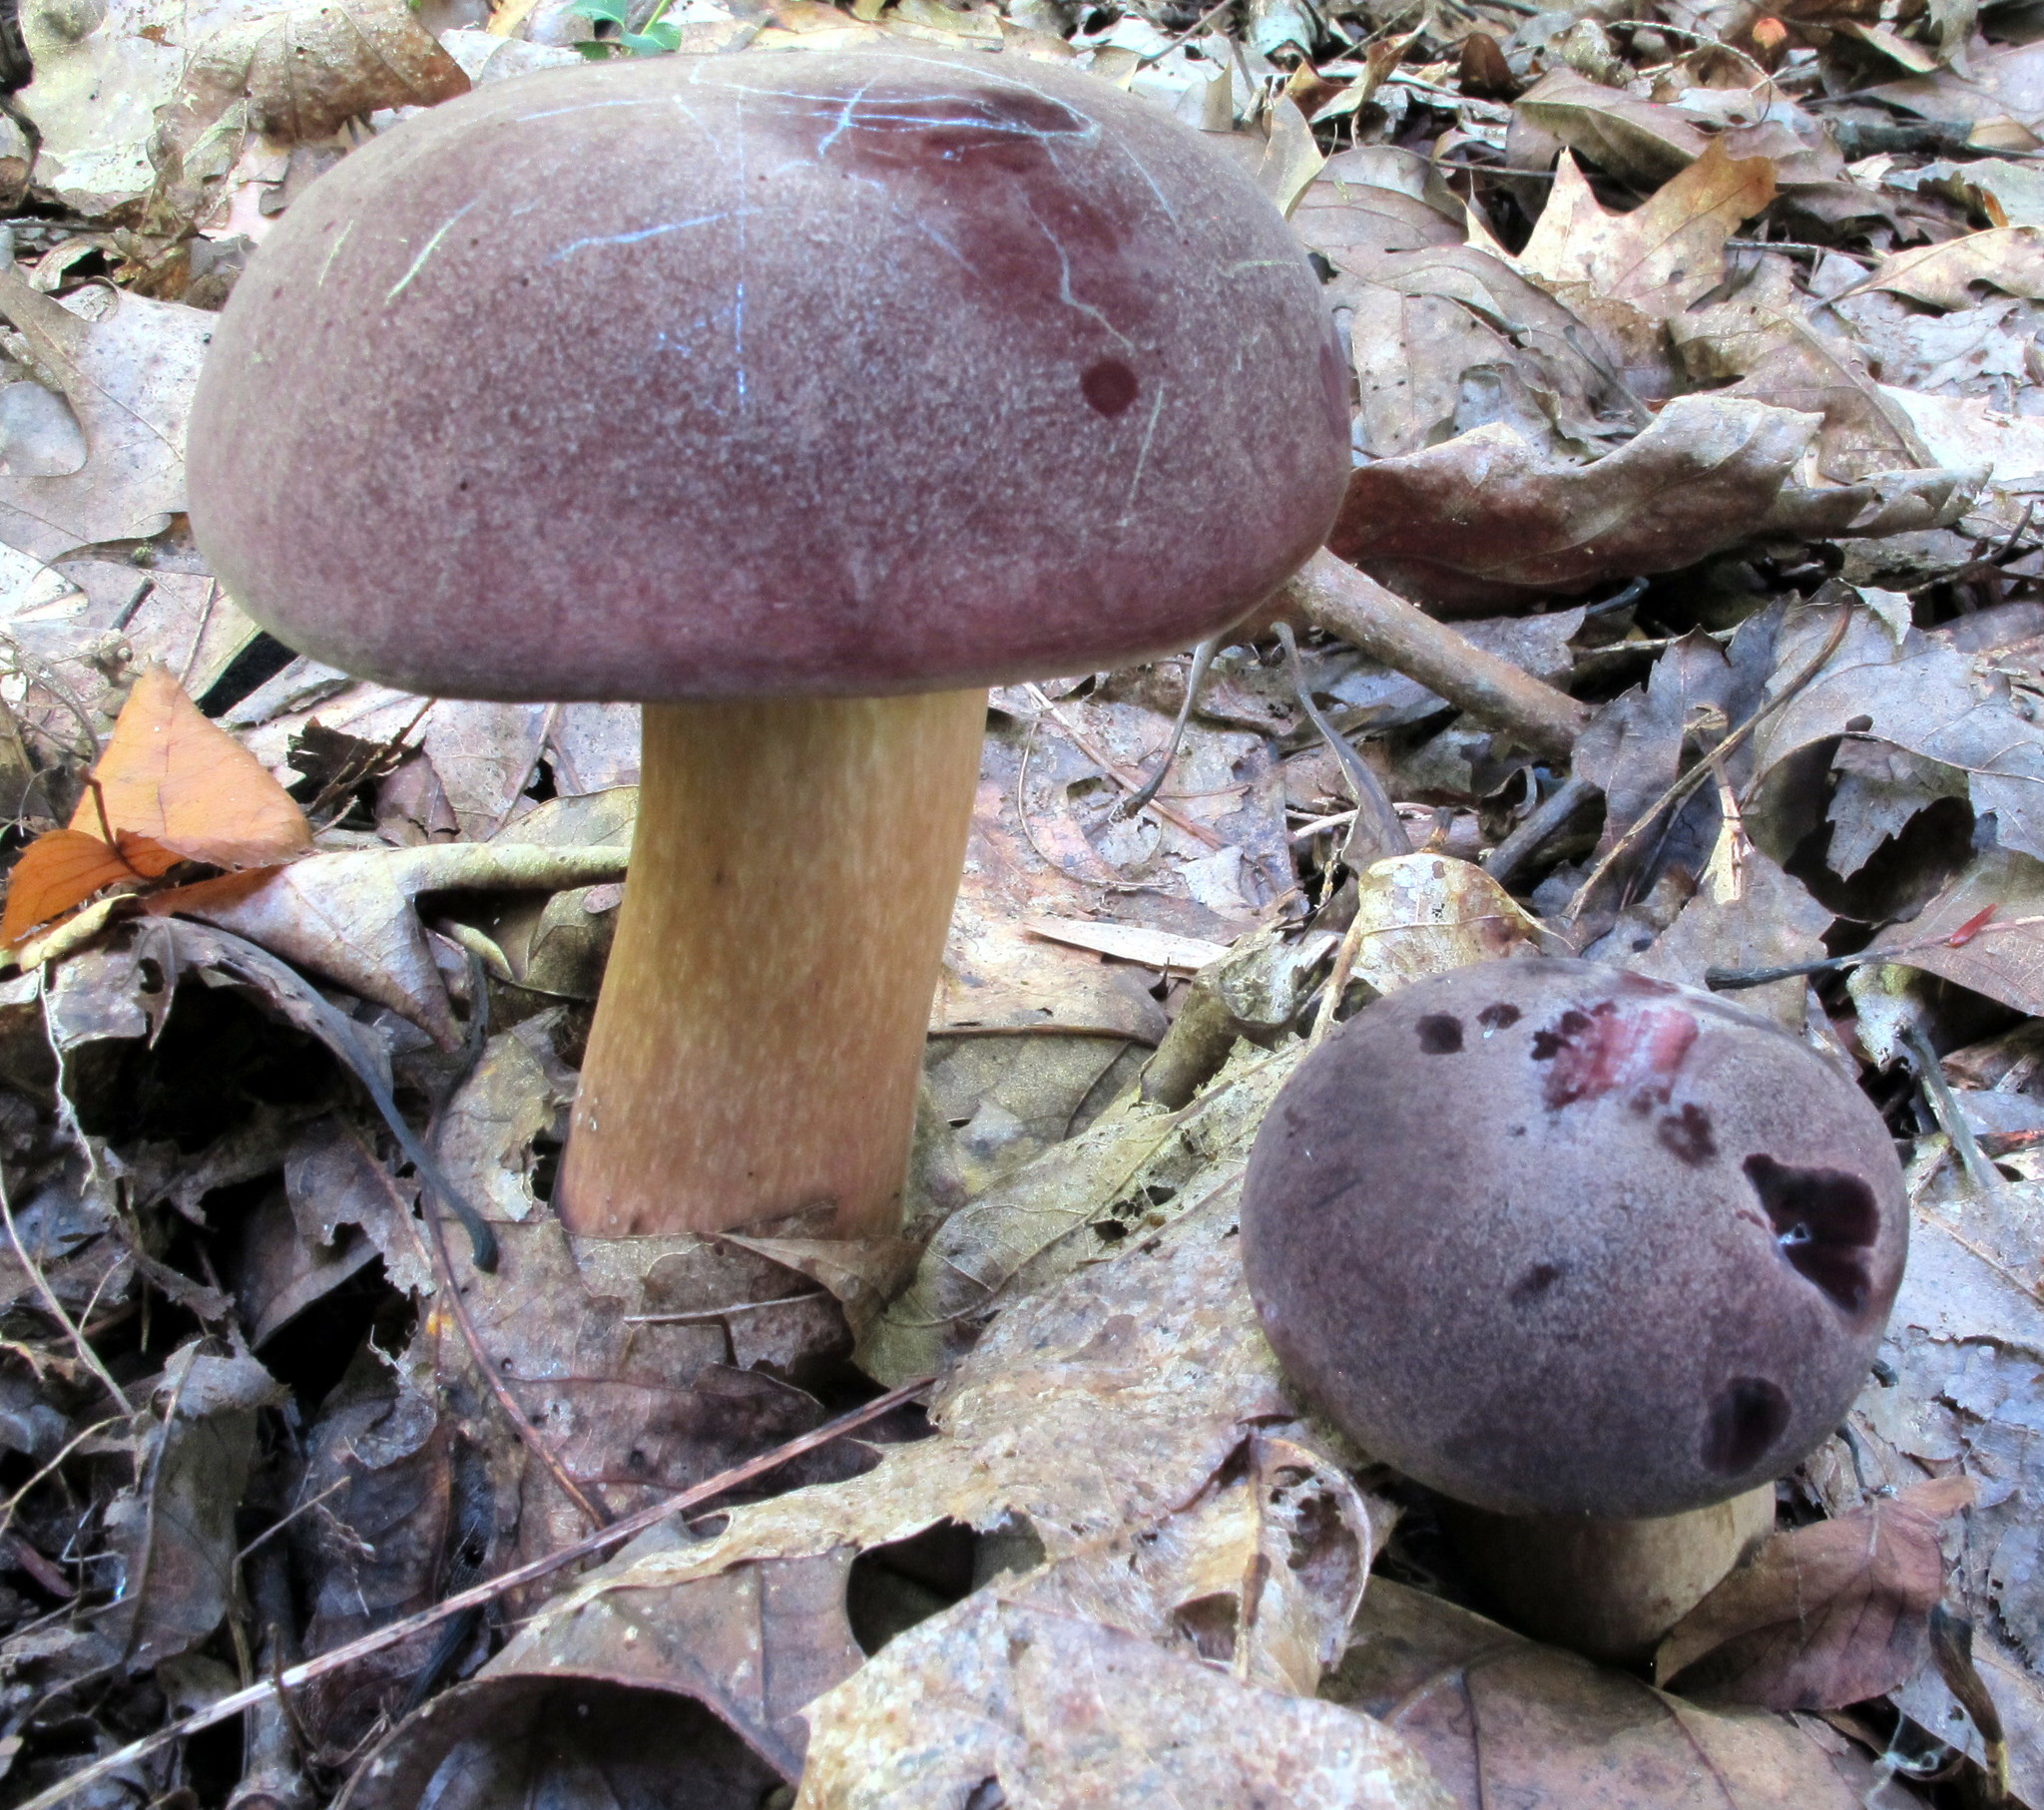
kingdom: Fungi
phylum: Basidiomycota
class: Agaricomycetes
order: Boletales
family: Boletaceae
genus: Tylopilus
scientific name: Tylopilus rubrobrunneus
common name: Reddish brown bitter bolete
